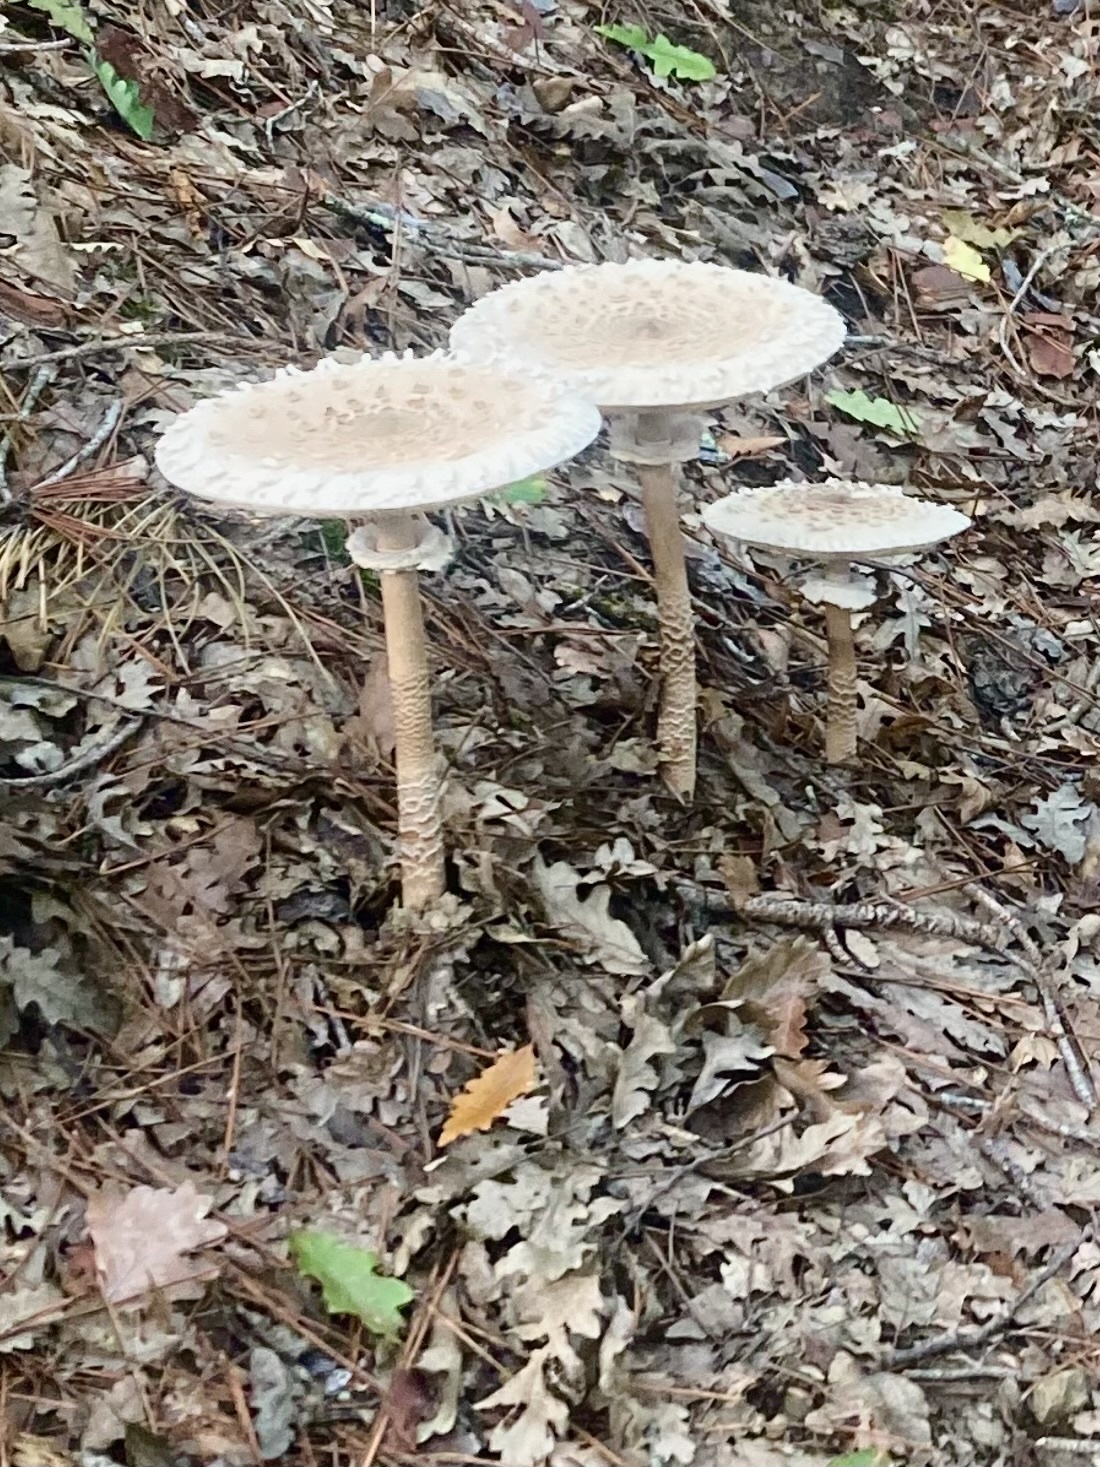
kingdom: Fungi
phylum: Basidiomycota
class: Agaricomycetes
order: Agaricales
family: Agaricaceae
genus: Macrolepiota
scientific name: Macrolepiota procera
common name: Parasol
